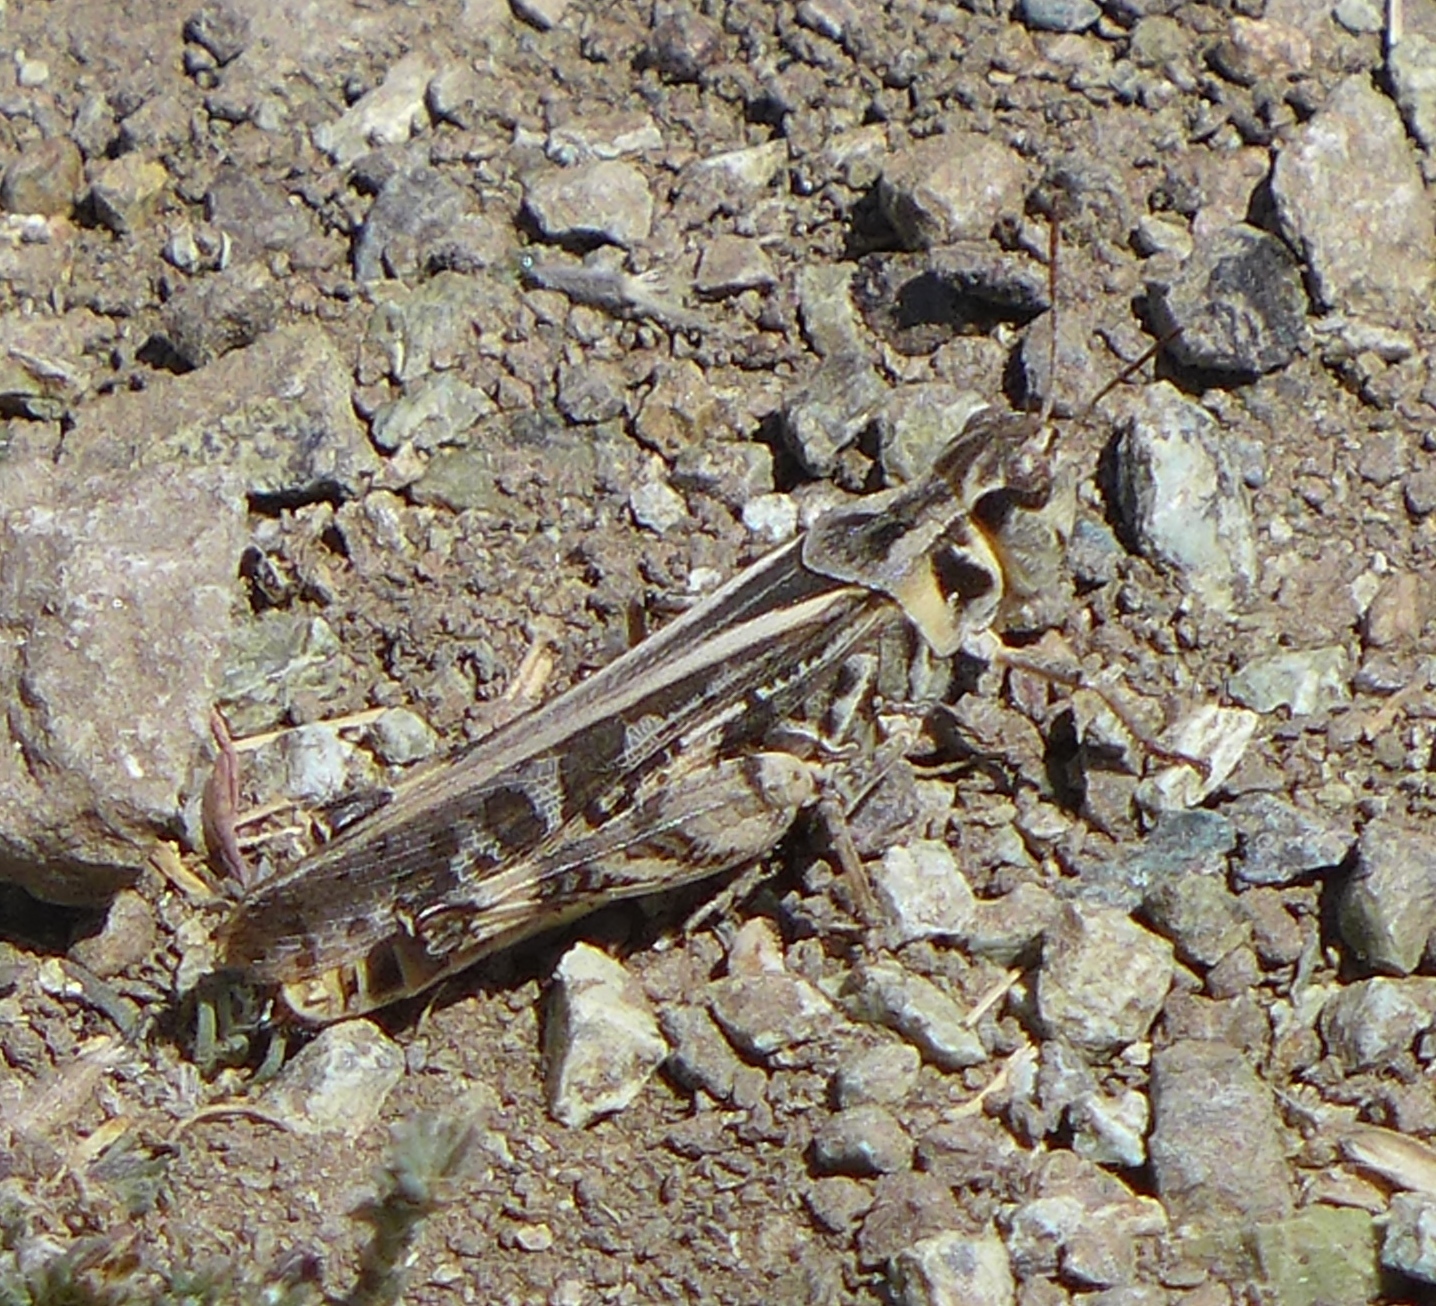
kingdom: Animalia
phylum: Arthropoda
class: Insecta
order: Orthoptera
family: Acrididae
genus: Camnula
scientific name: Camnula pellucida
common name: Clear-winged grasshopper
